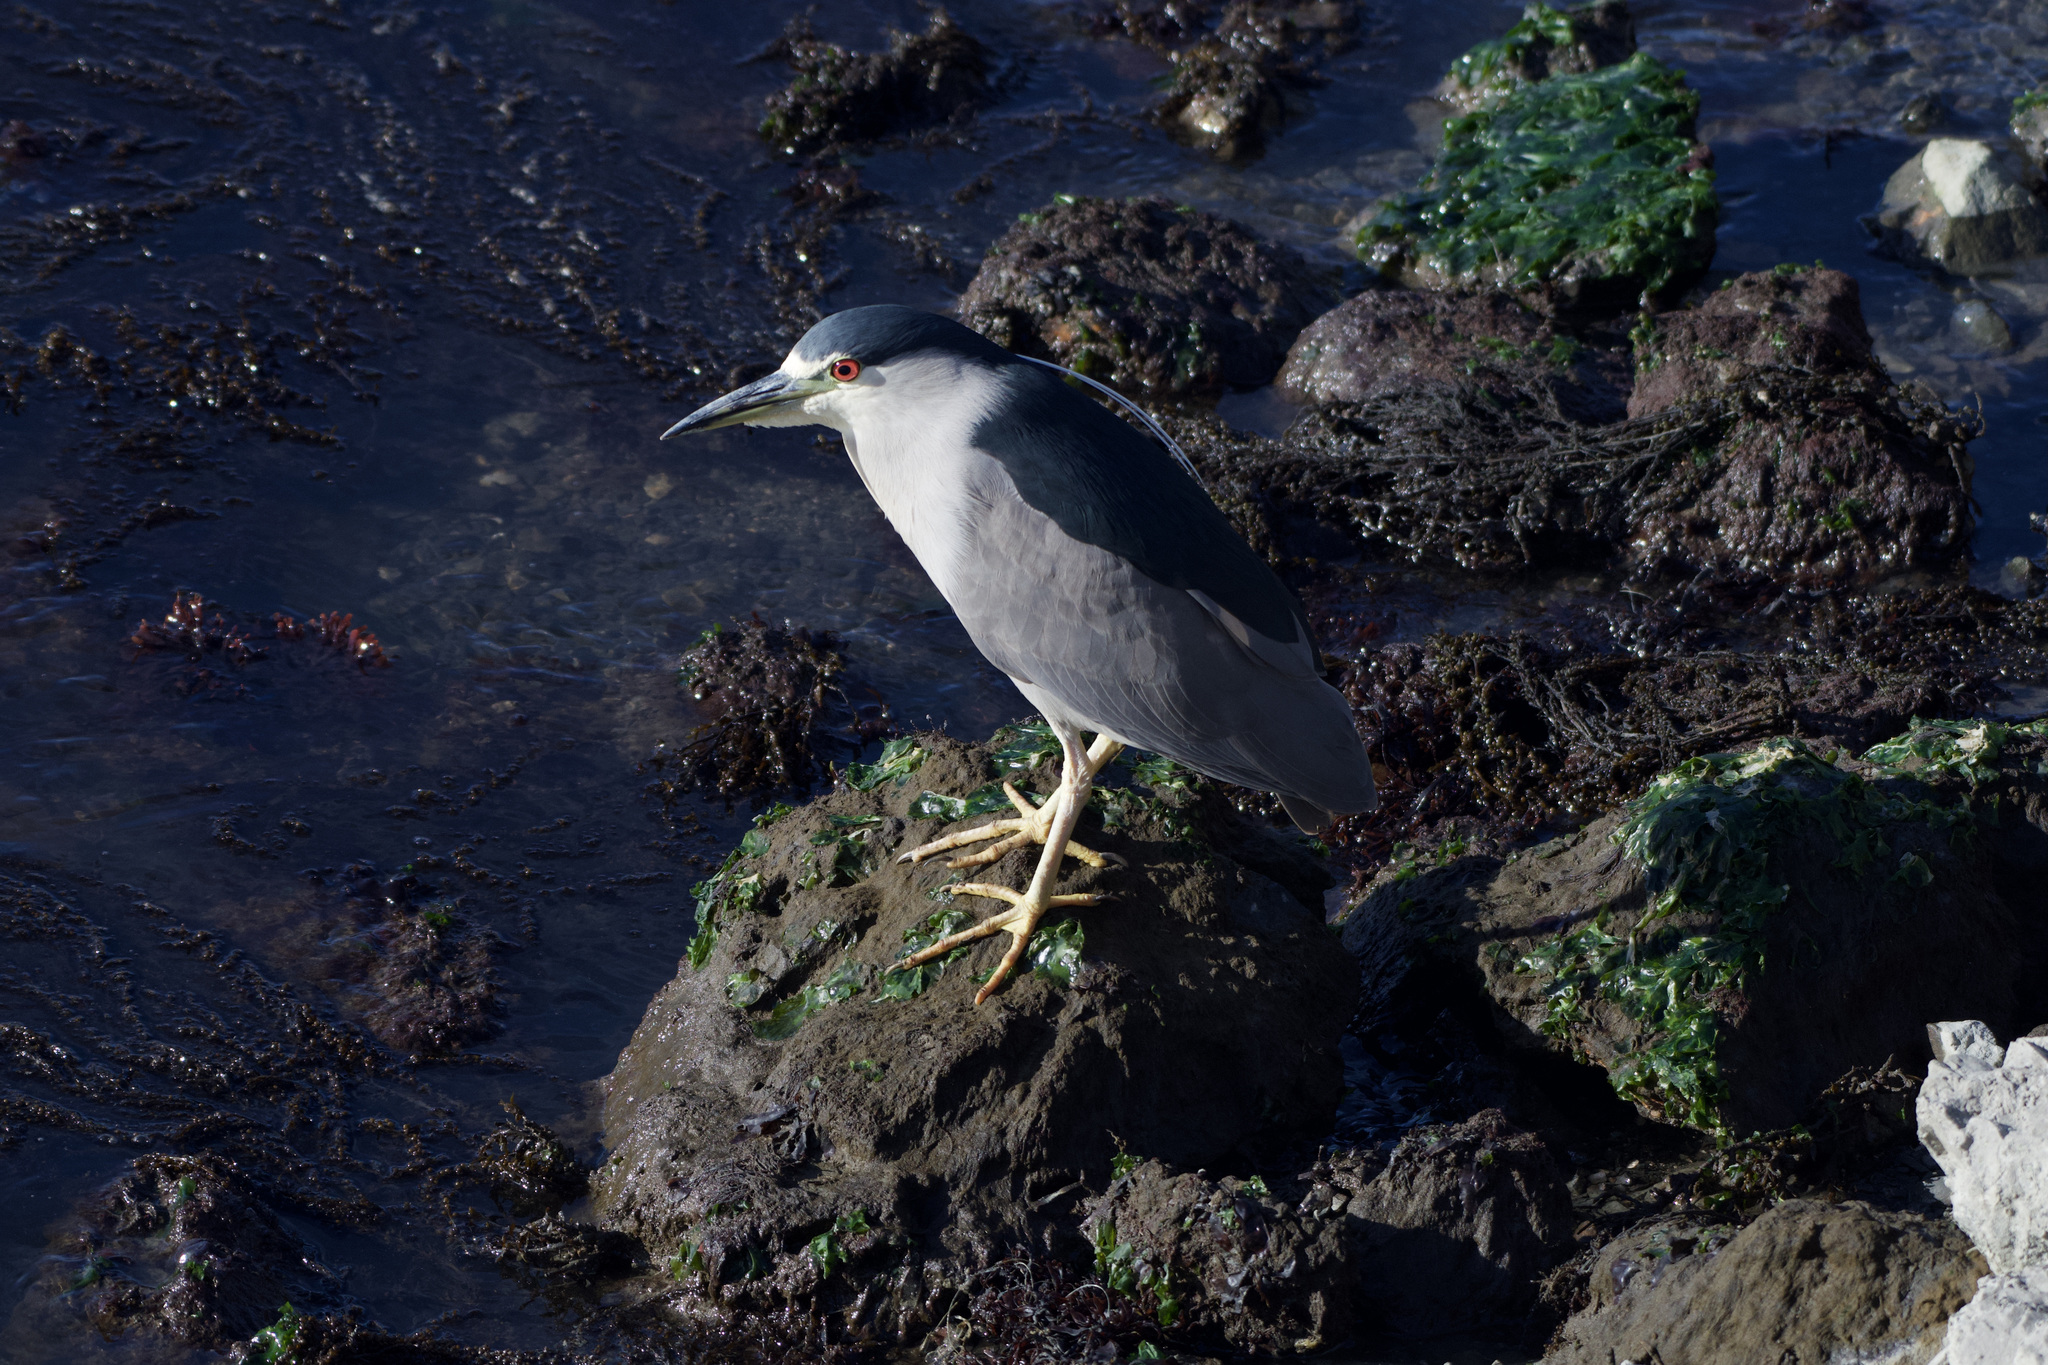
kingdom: Animalia
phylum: Chordata
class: Aves
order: Pelecaniformes
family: Ardeidae
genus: Nycticorax
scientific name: Nycticorax nycticorax
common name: Black-crowned night heron
